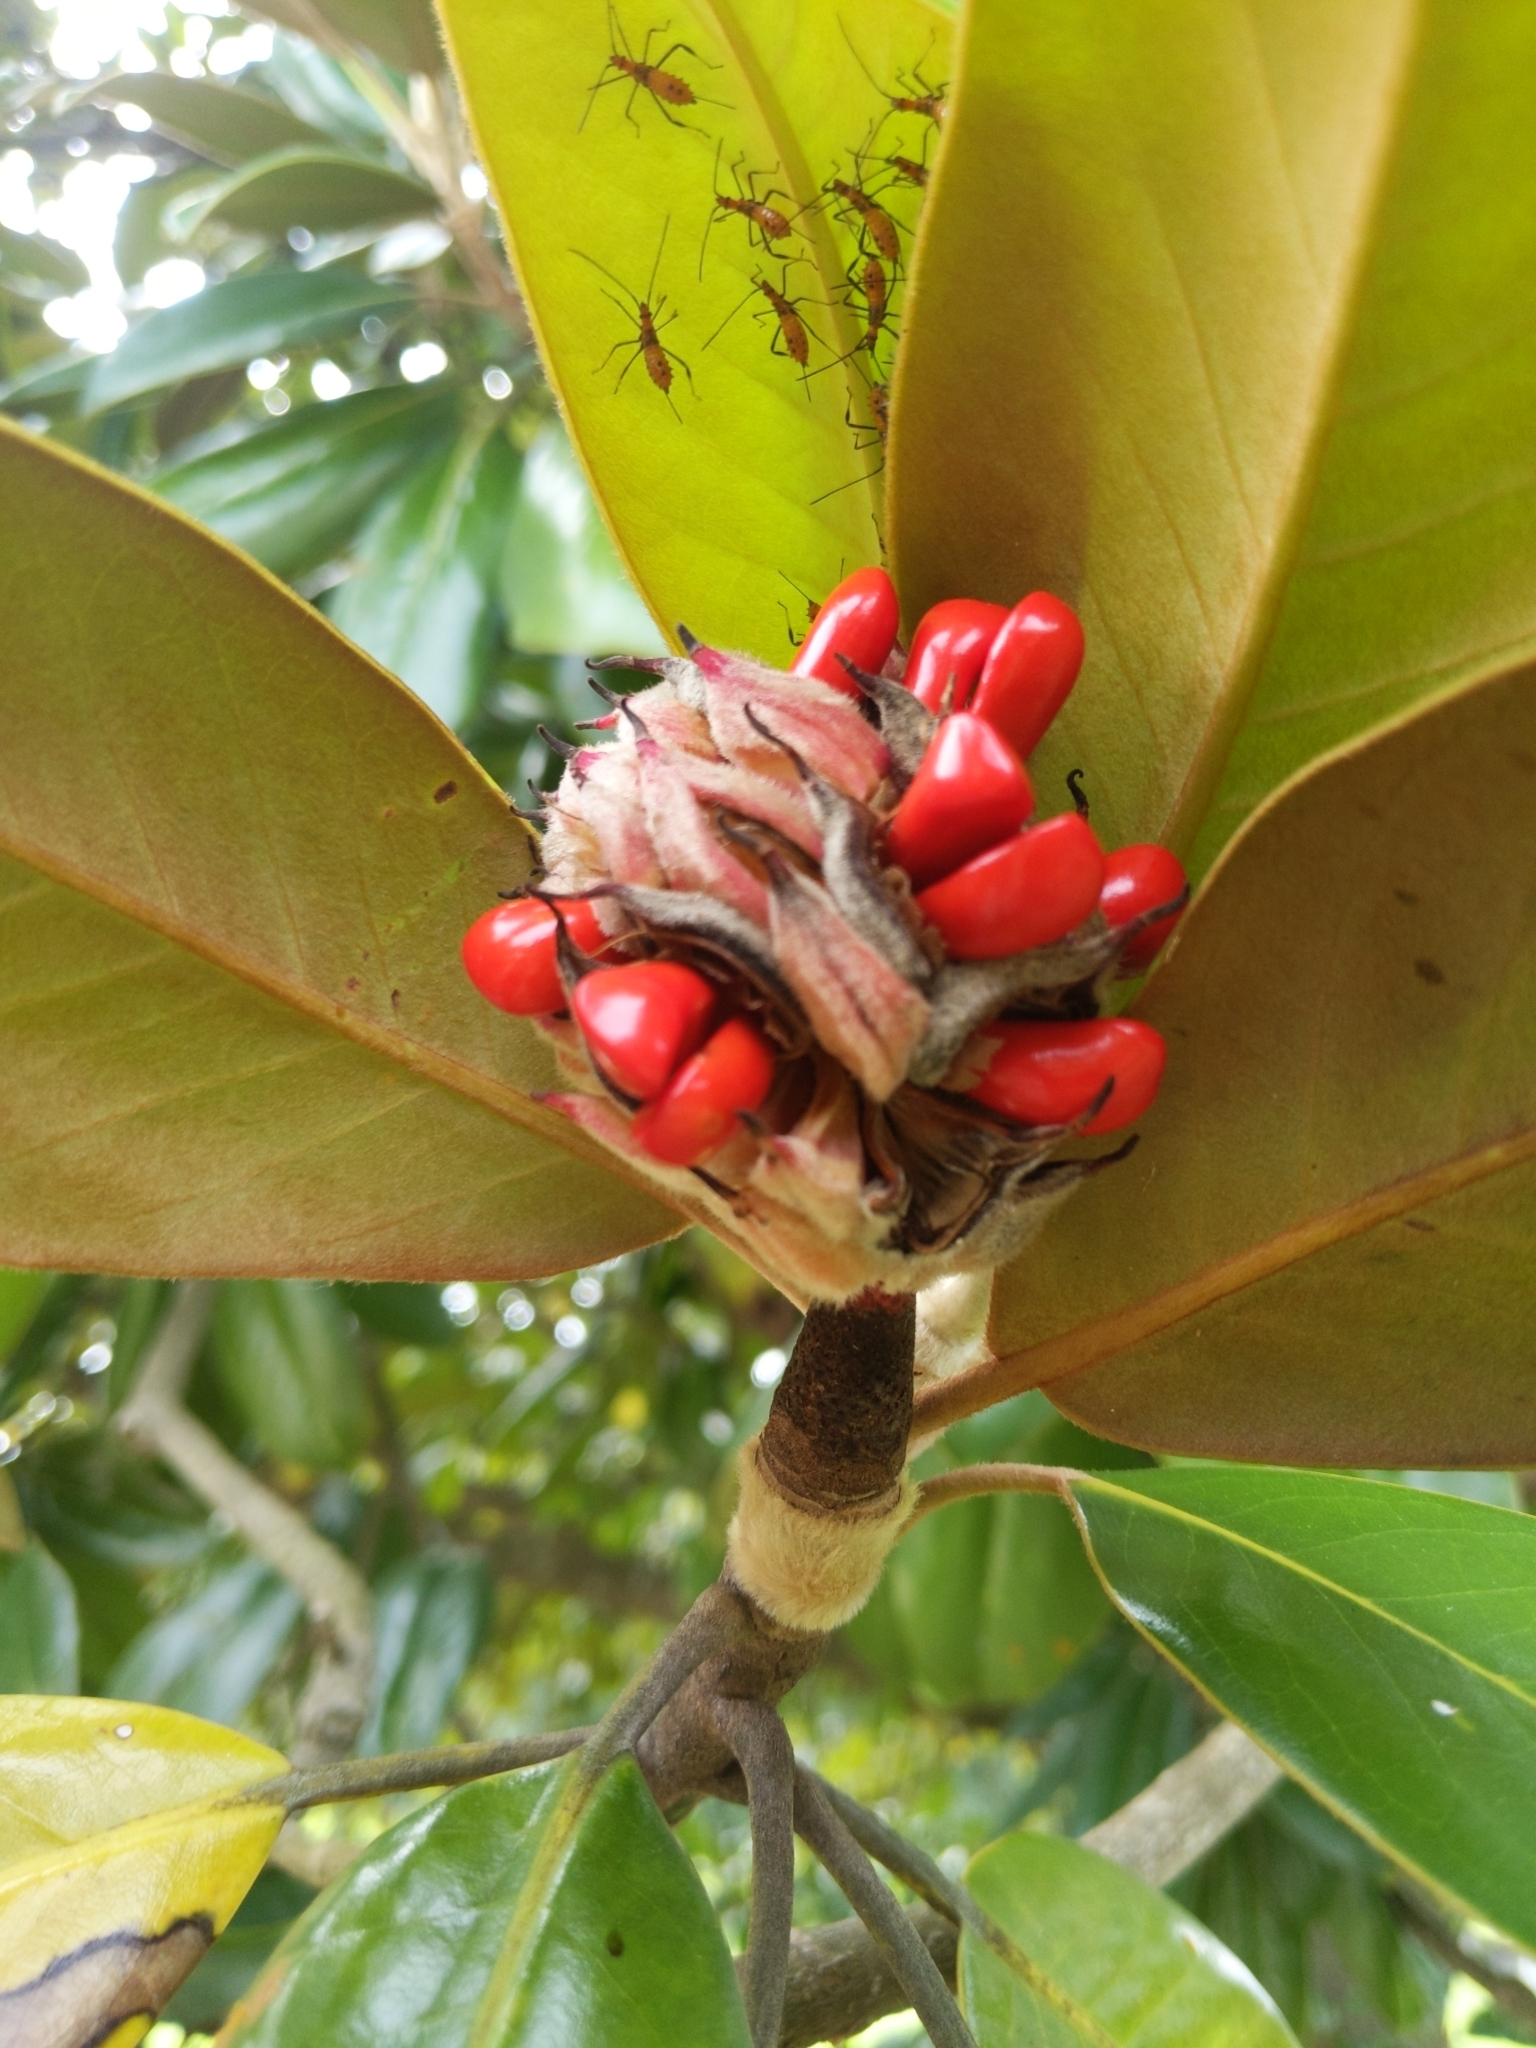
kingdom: Plantae
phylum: Tracheophyta
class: Magnoliopsida
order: Magnoliales
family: Magnoliaceae
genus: Magnolia
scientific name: Magnolia grandiflora
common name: Southern magnolia
